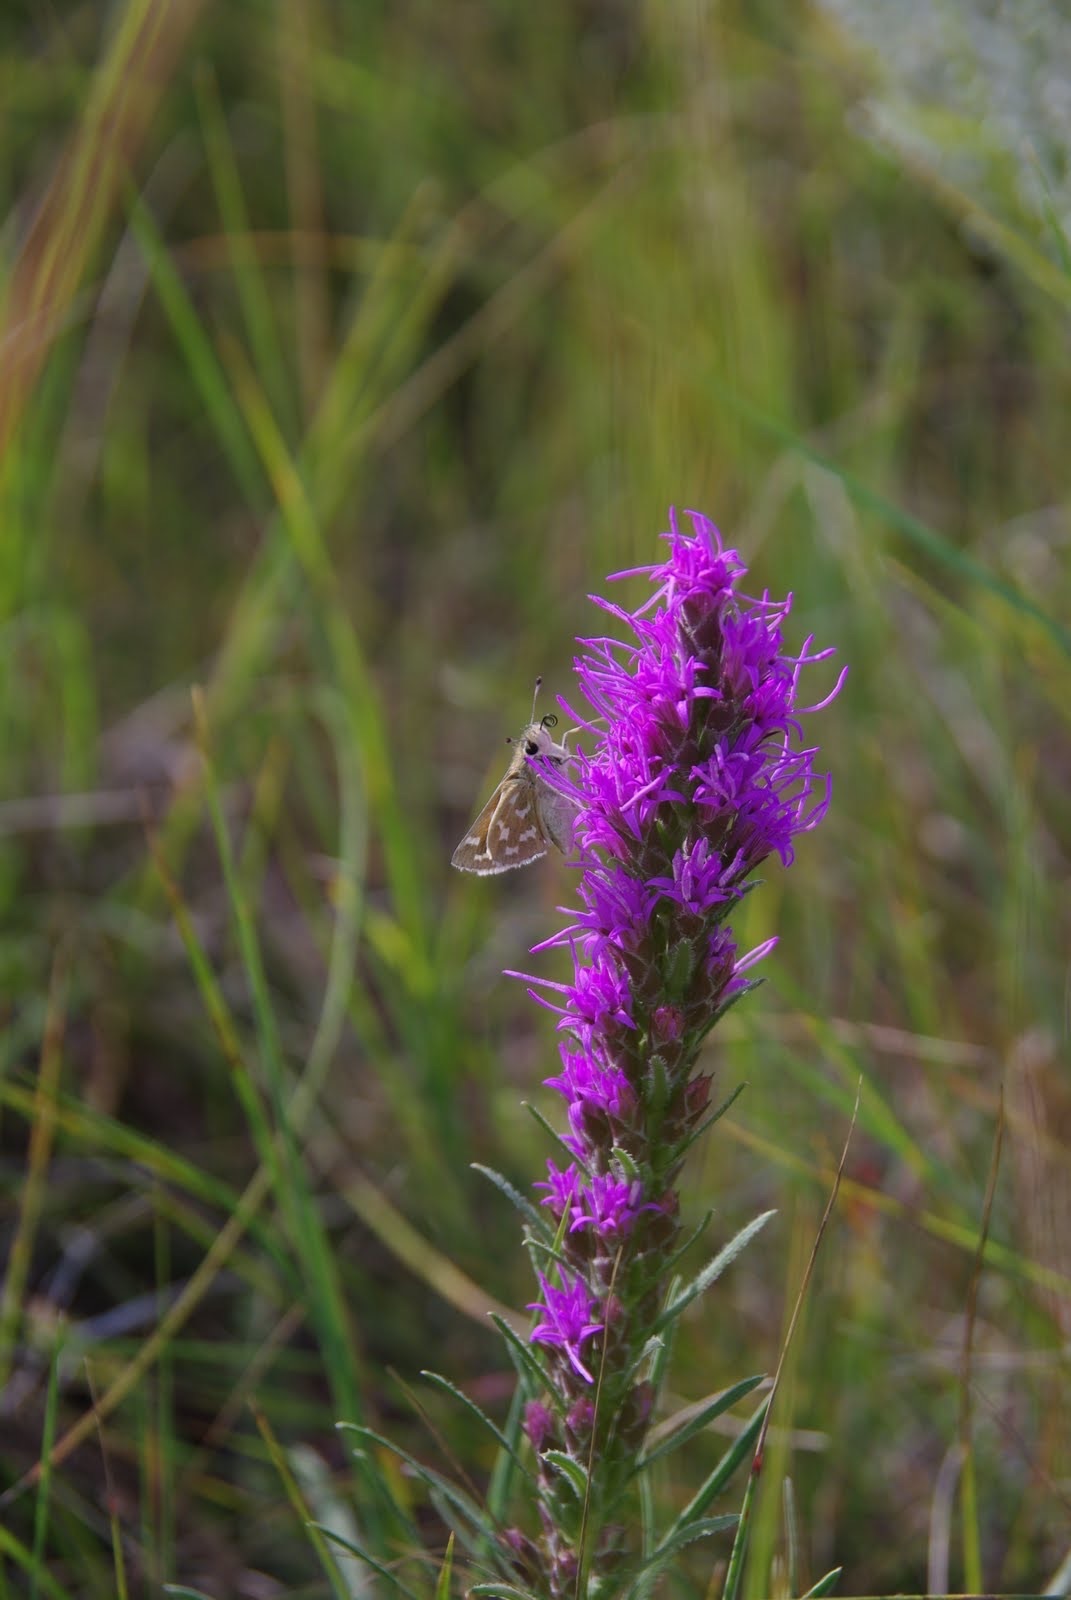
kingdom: Plantae
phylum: Tracheophyta
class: Magnoliopsida
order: Asterales
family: Asteraceae
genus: Liatris
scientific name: Liatris punctata
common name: Dotted gayfeather
